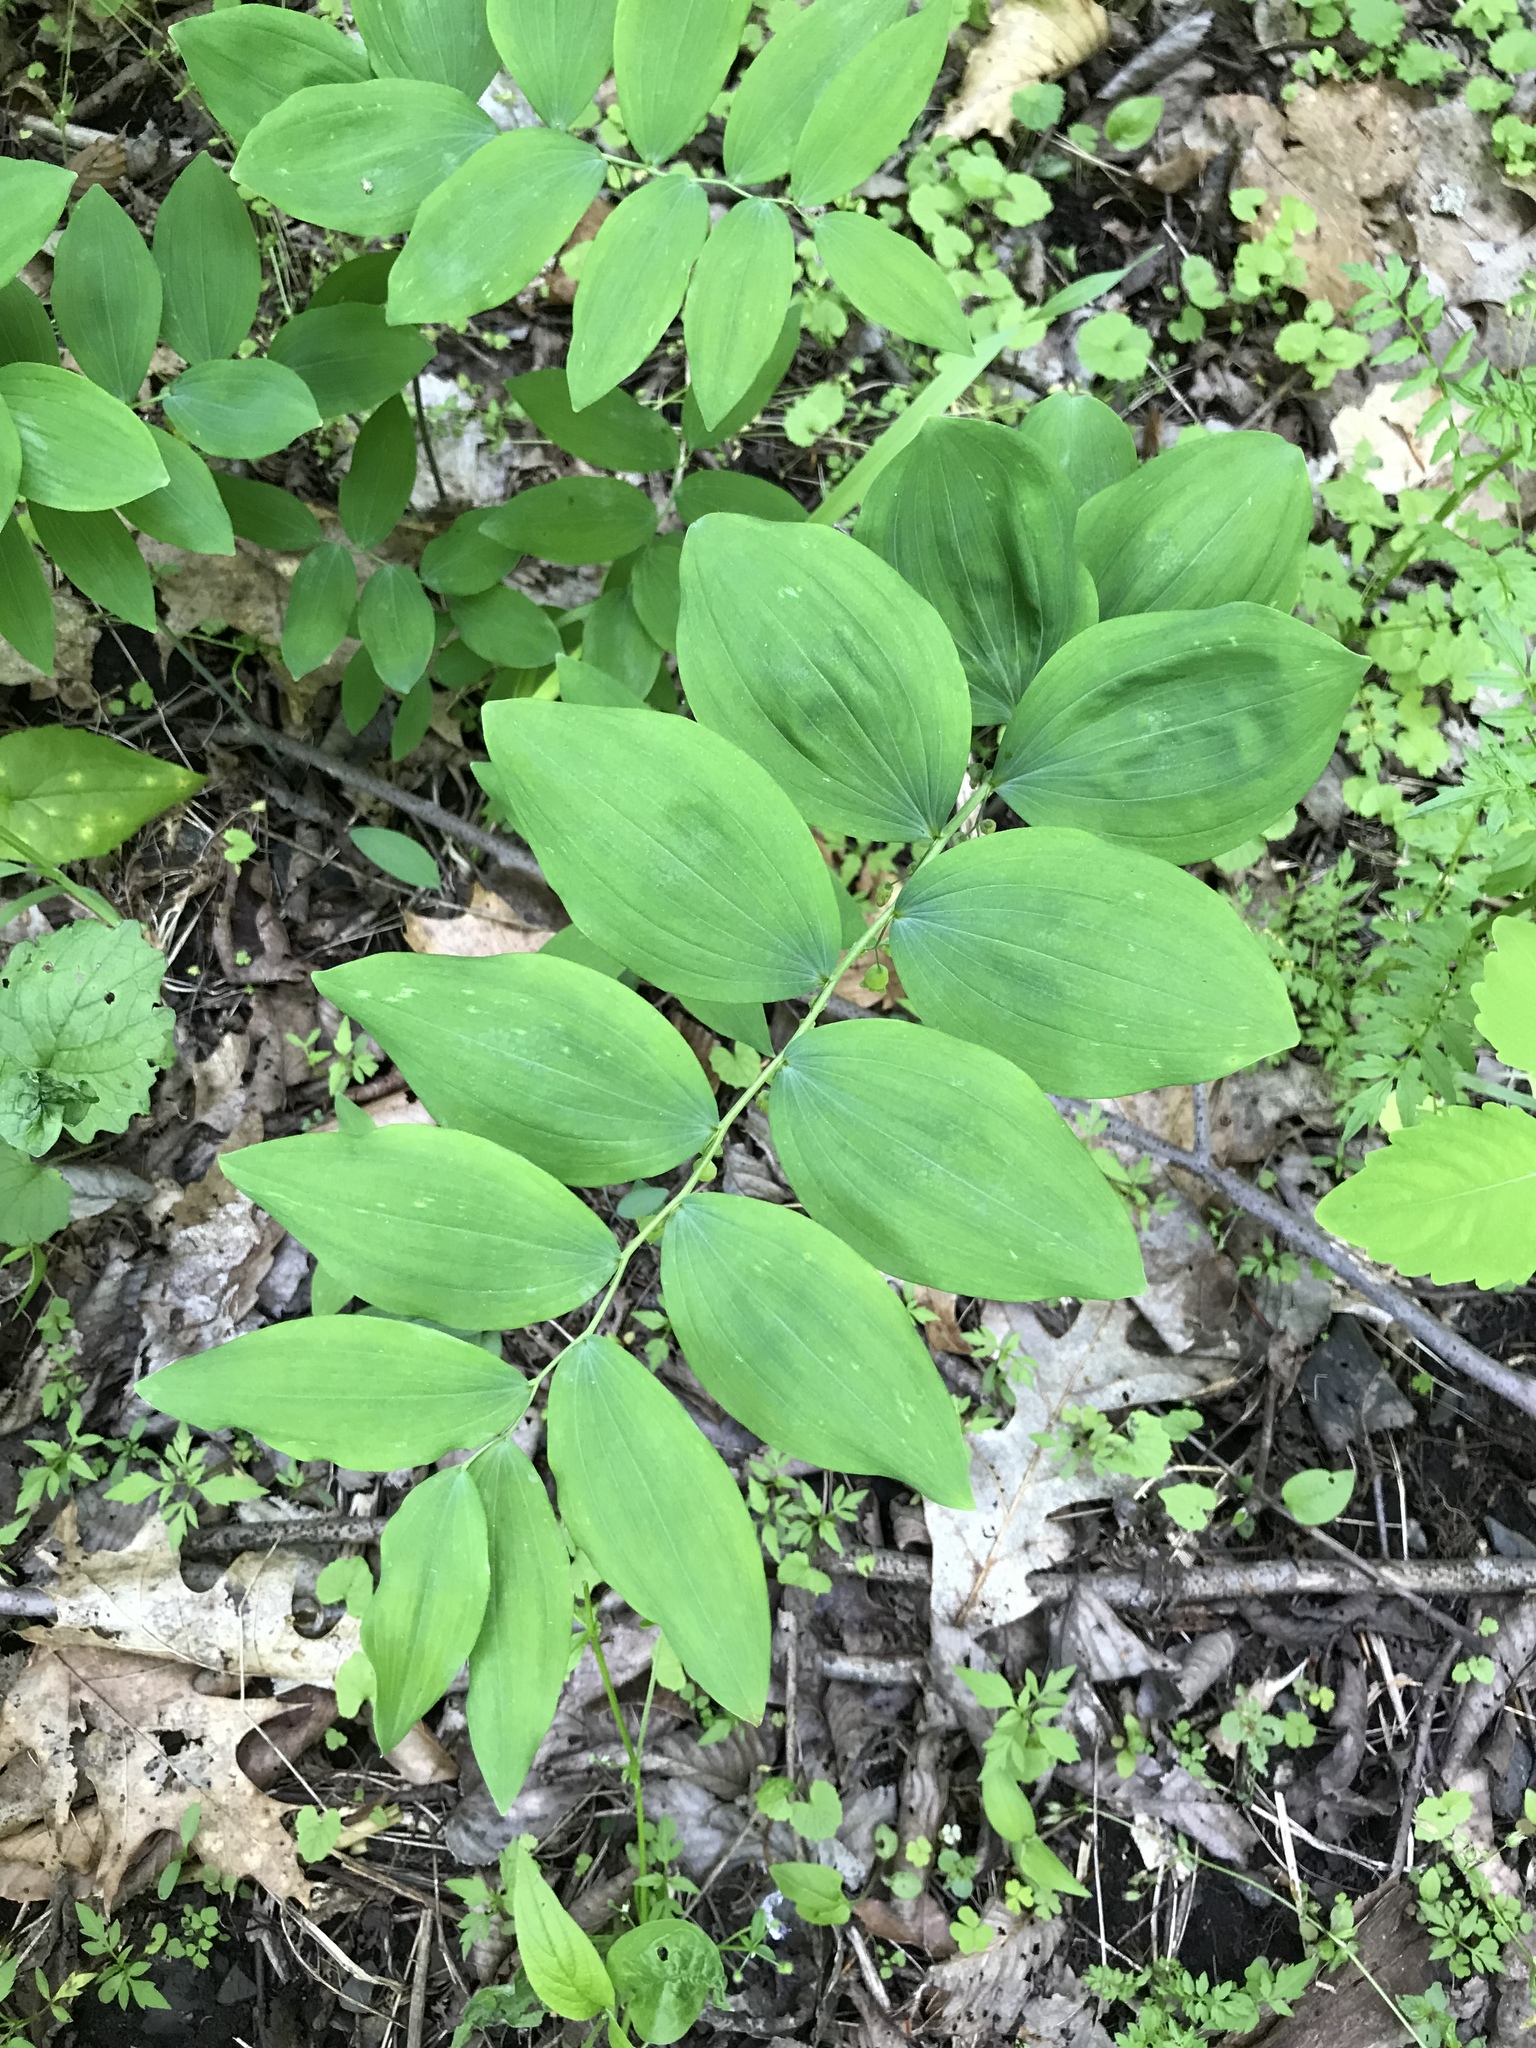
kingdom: Plantae
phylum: Tracheophyta
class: Liliopsida
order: Asparagales
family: Asparagaceae
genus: Polygonatum
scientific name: Polygonatum pubescens
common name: Downy solomon's seal
